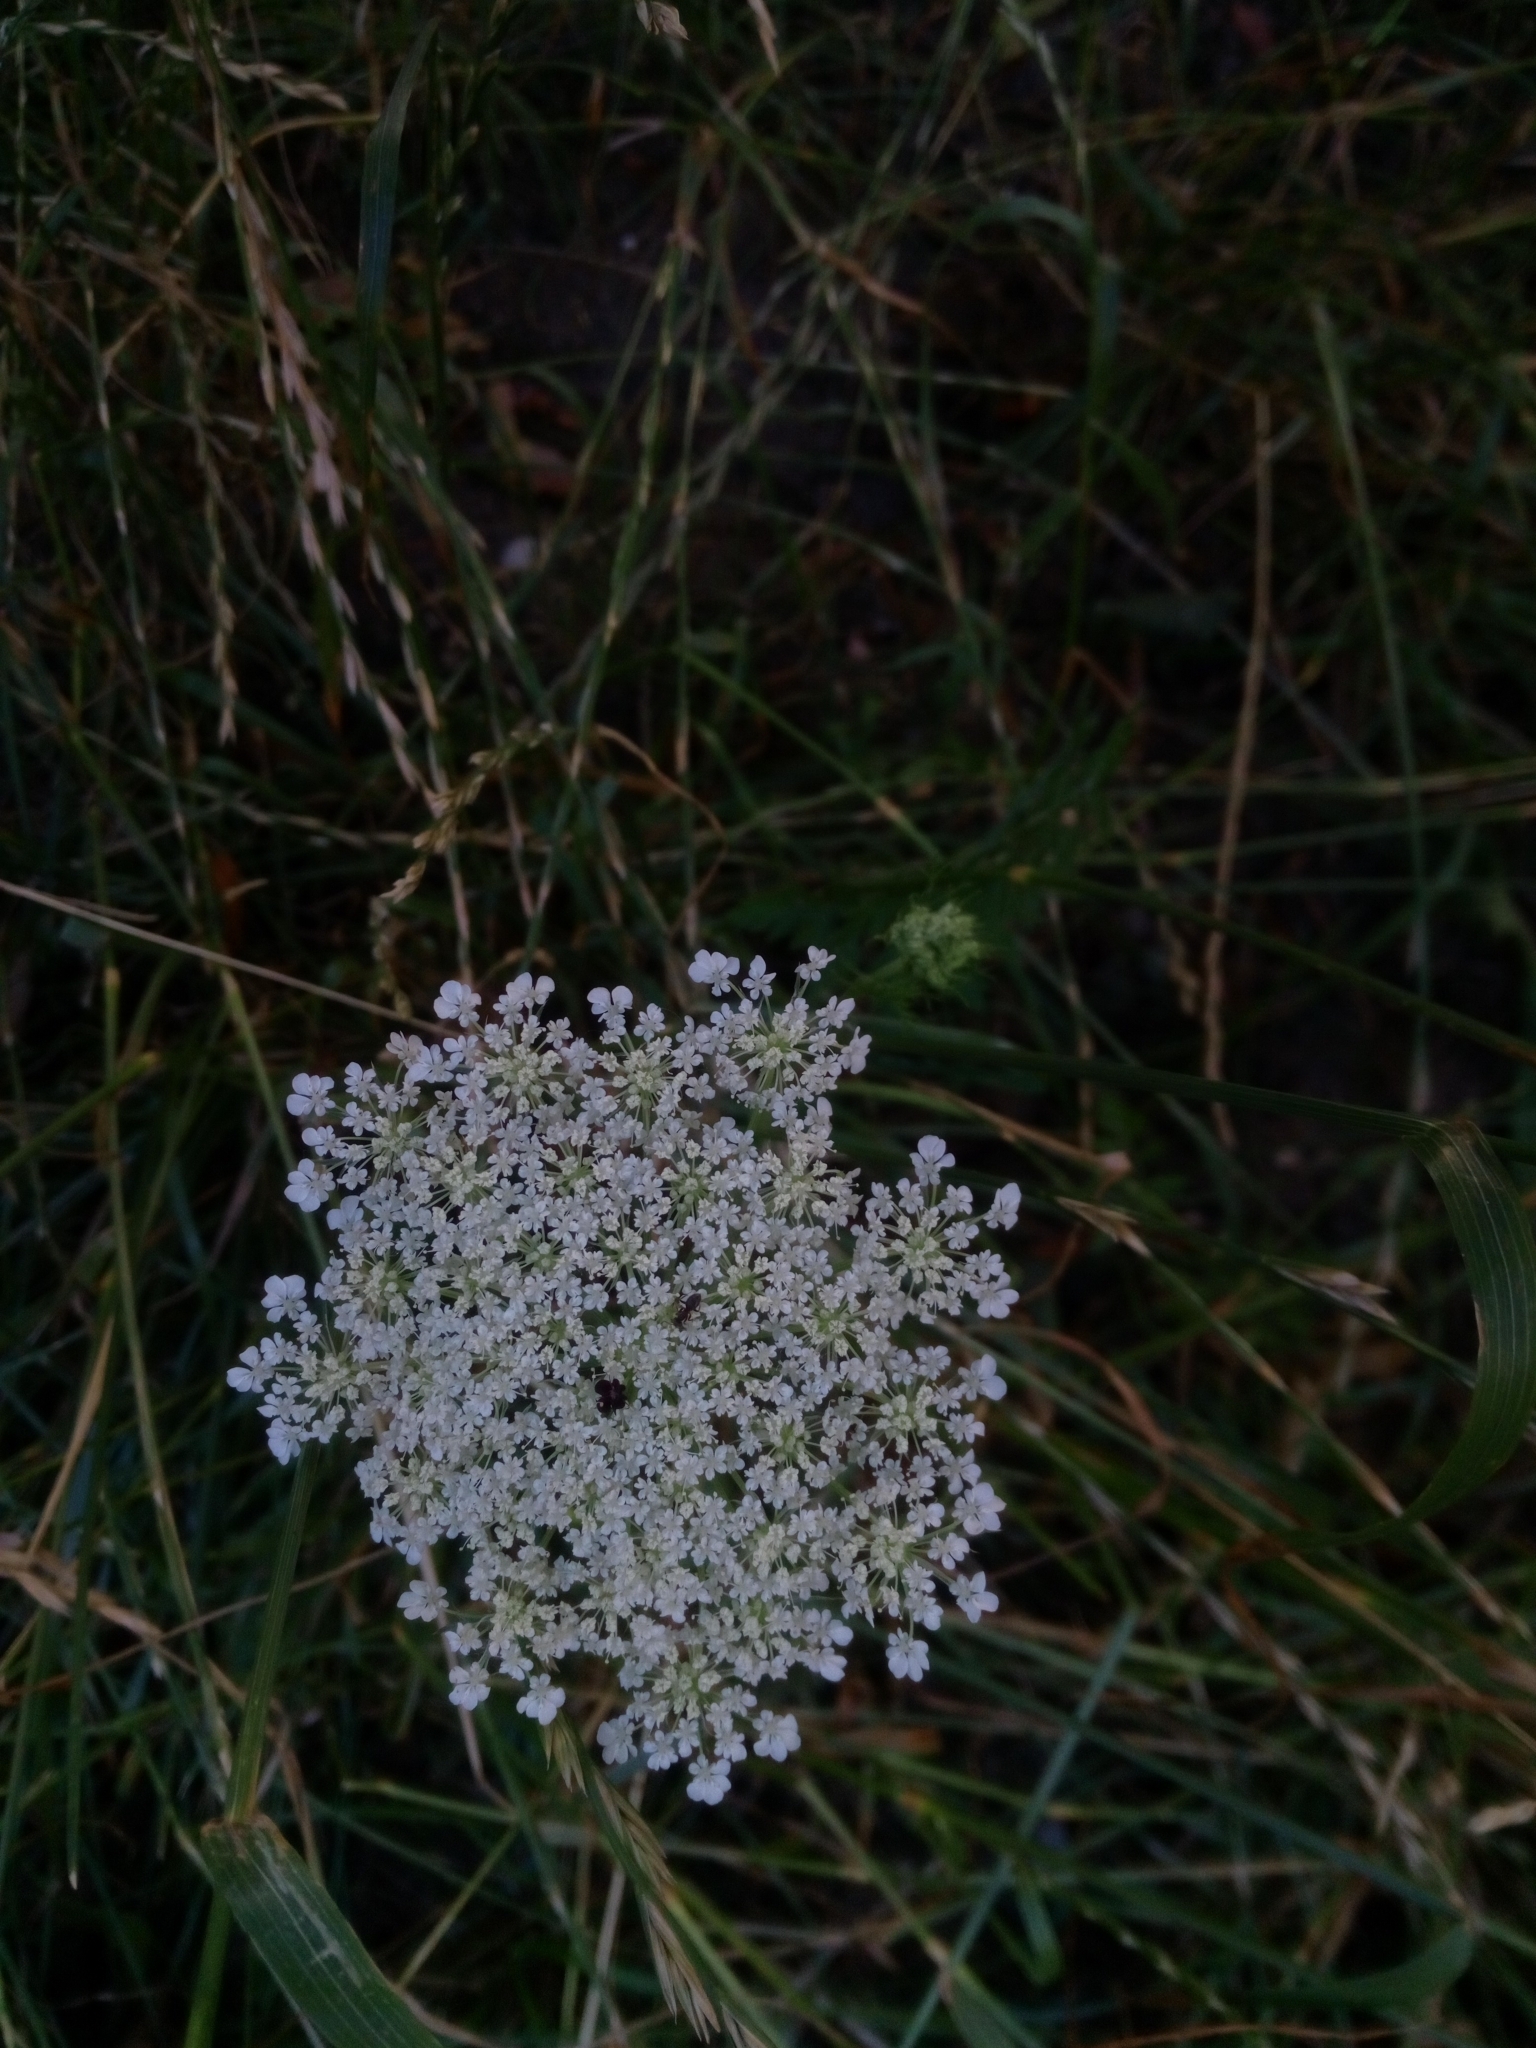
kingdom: Plantae
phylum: Tracheophyta
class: Magnoliopsida
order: Apiales
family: Apiaceae
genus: Daucus
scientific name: Daucus carota
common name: Wild carrot
